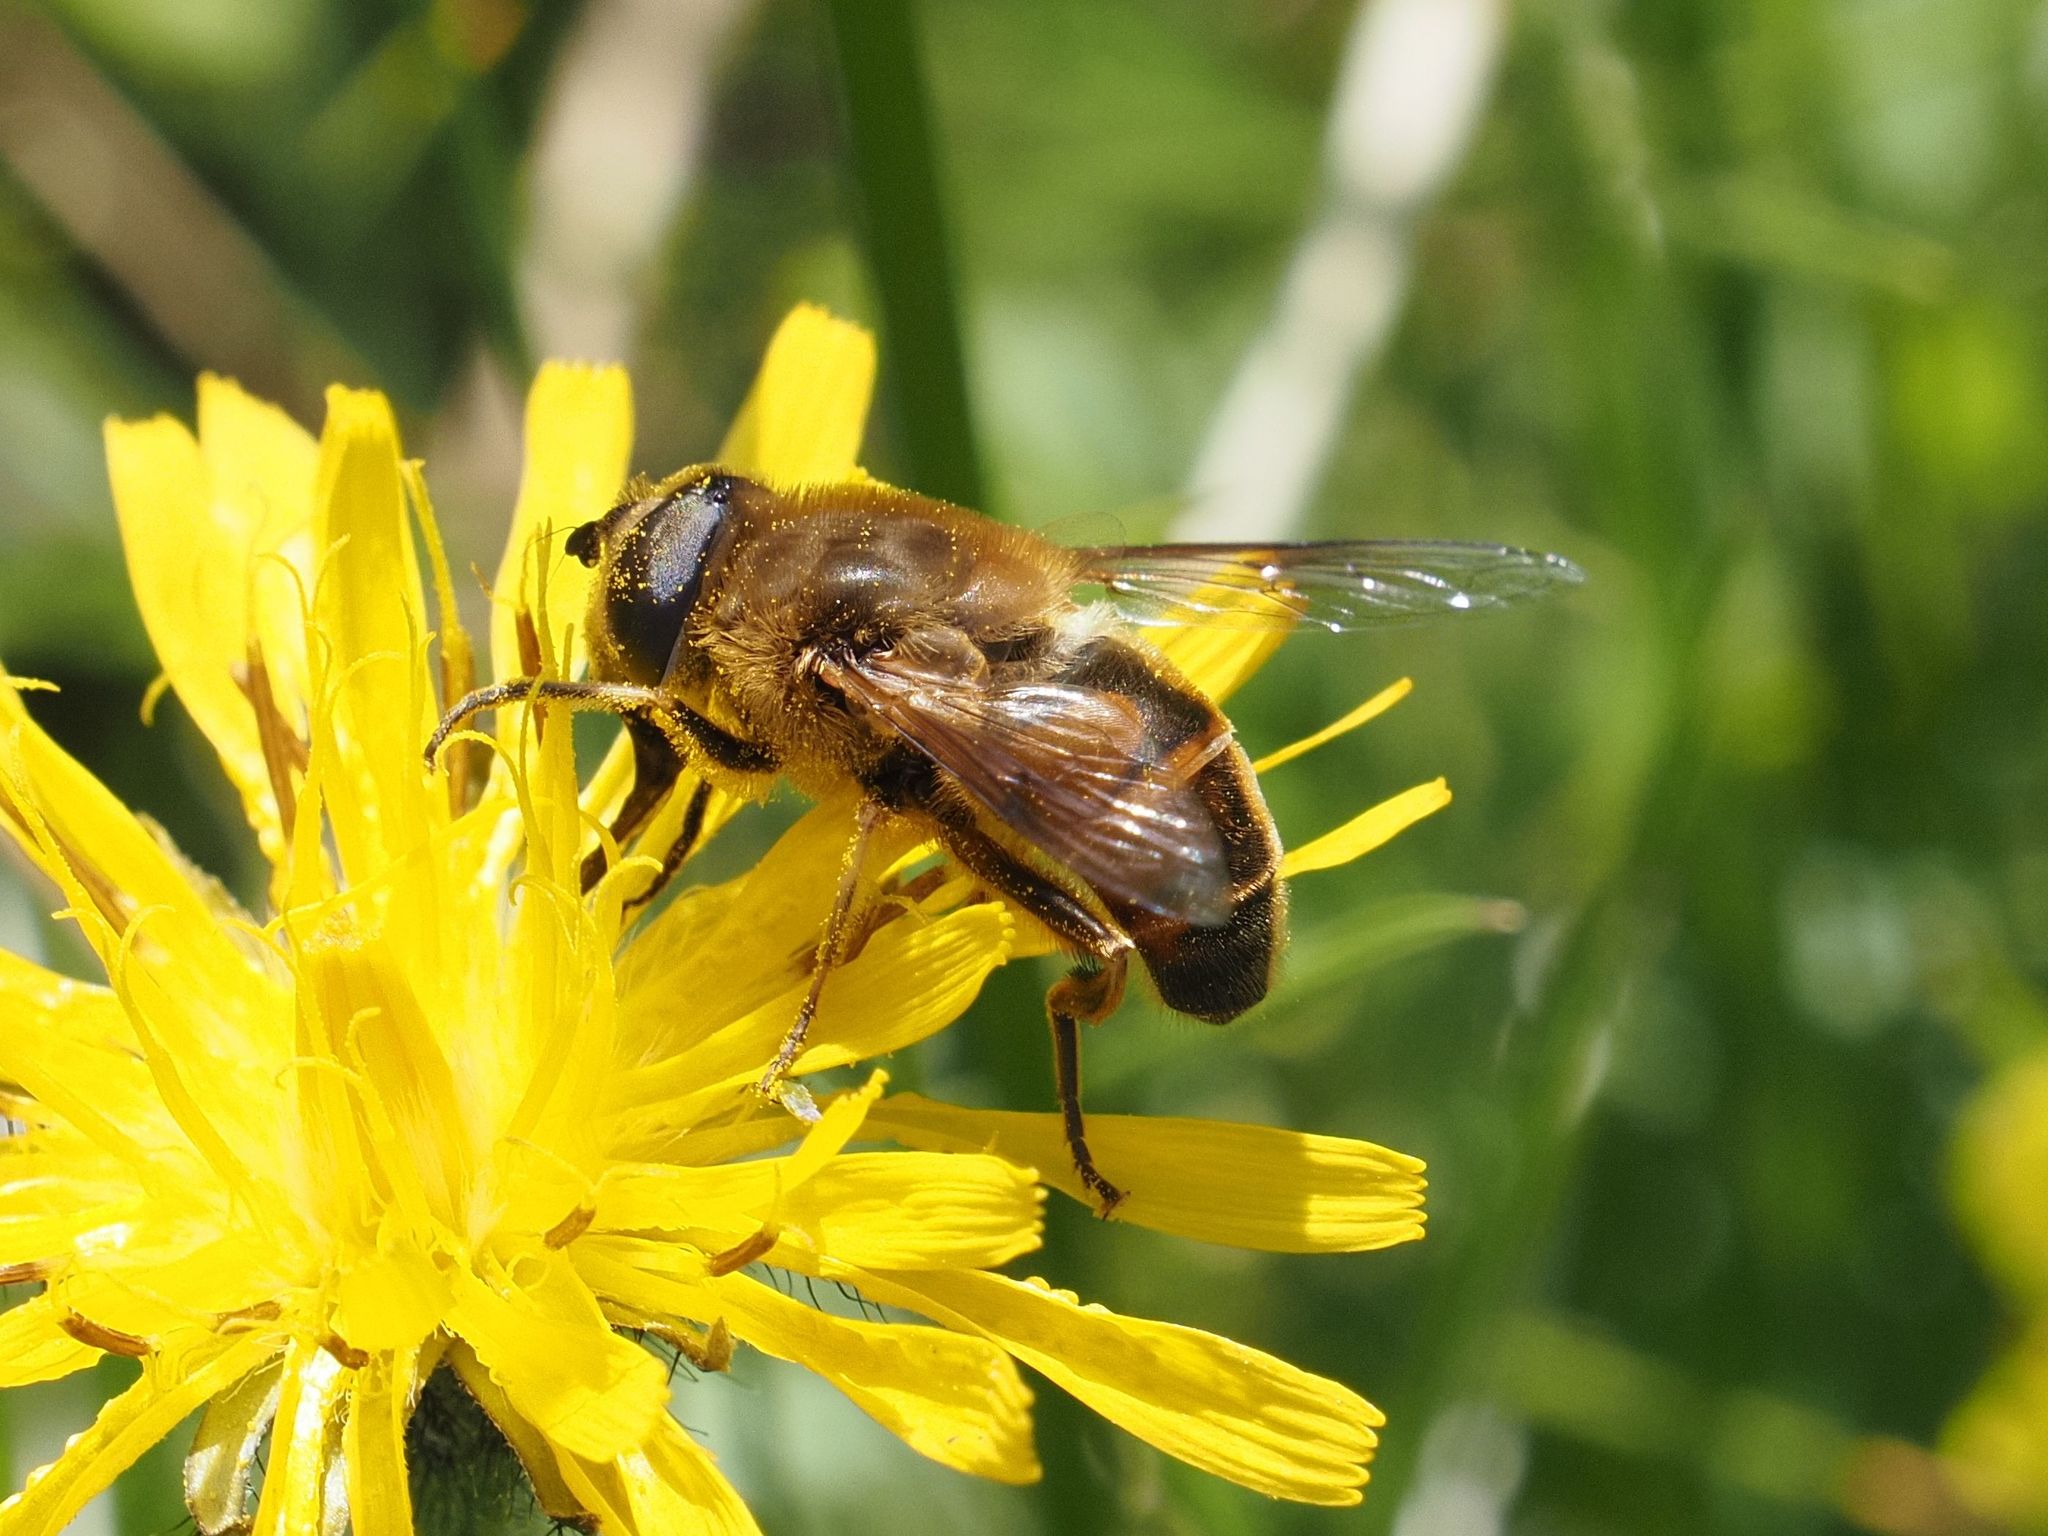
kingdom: Animalia
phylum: Arthropoda
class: Insecta
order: Diptera
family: Syrphidae
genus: Eristalis
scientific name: Eristalis tenax
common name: Drone fly
